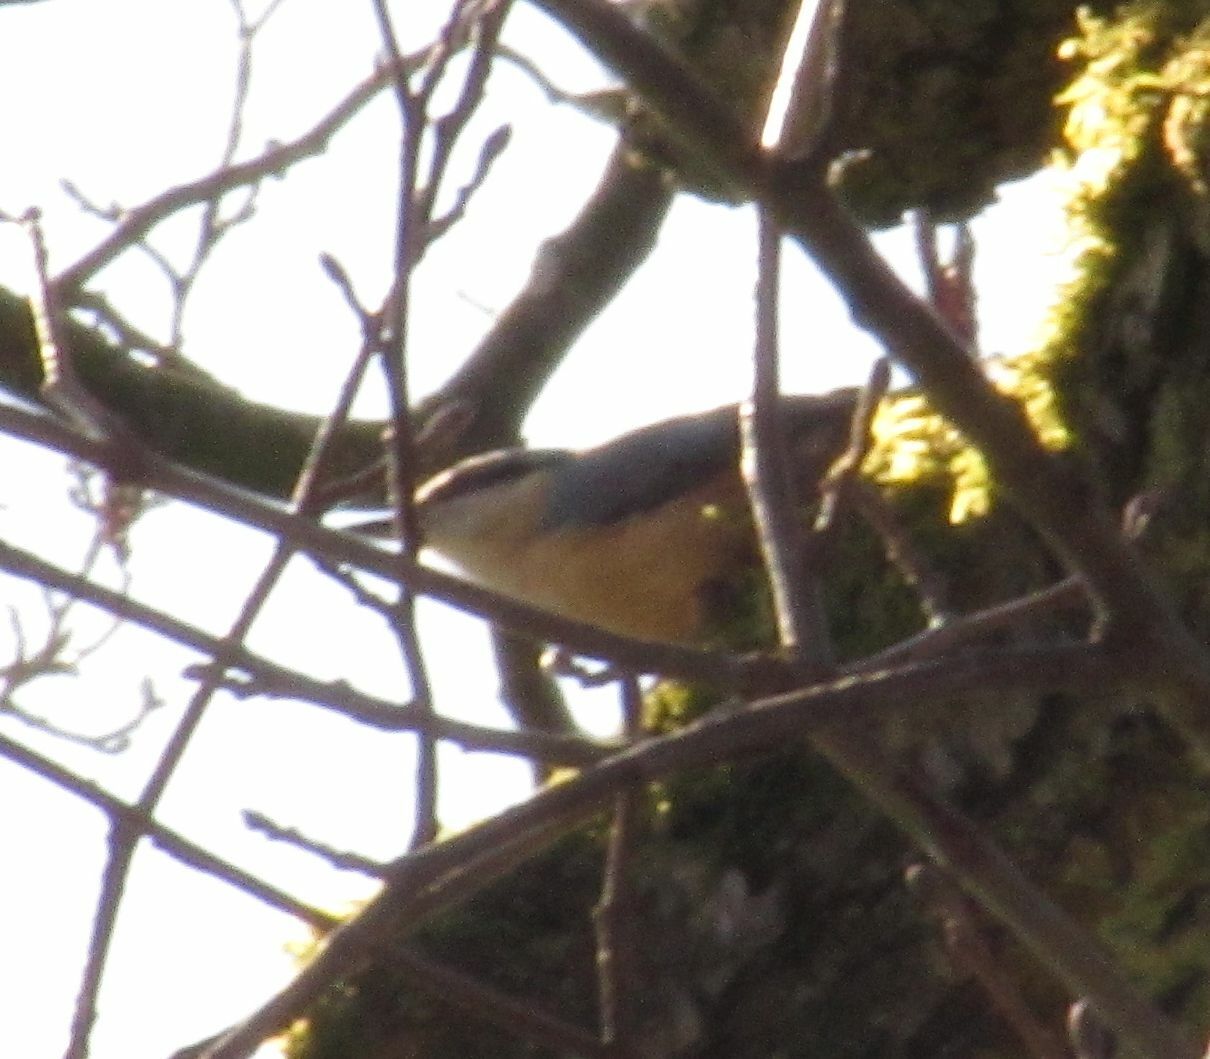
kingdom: Animalia
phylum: Chordata
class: Aves
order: Passeriformes
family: Sittidae
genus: Sitta
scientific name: Sitta europaea
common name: Eurasian nuthatch
